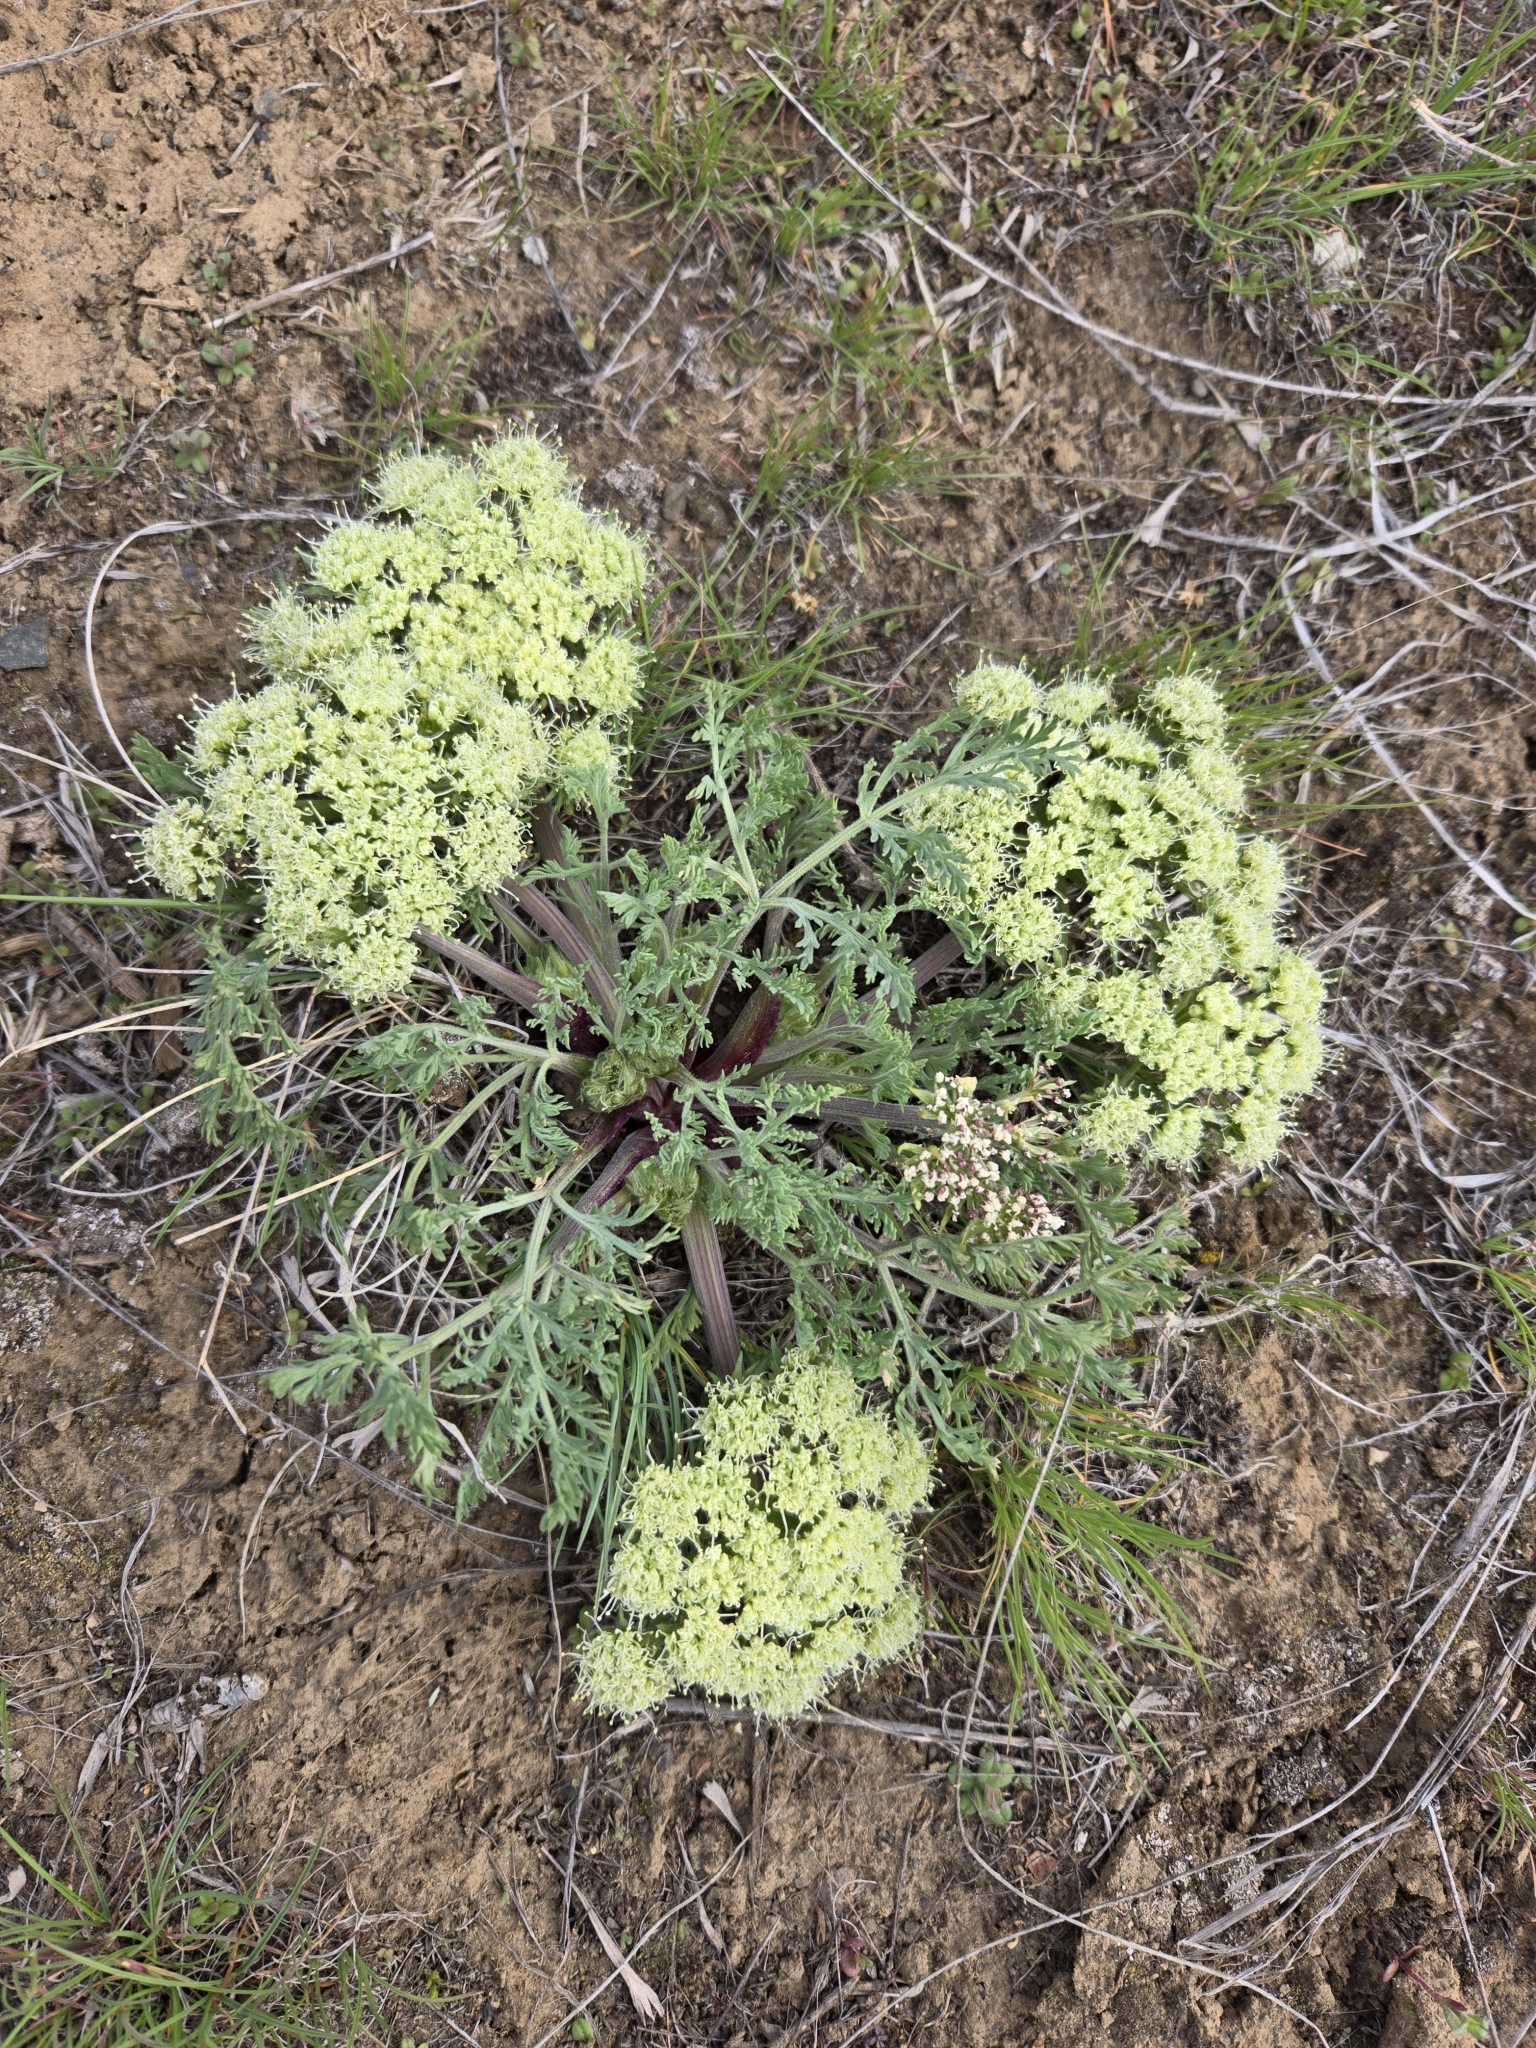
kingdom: Plantae
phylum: Tracheophyta
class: Magnoliopsida
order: Apiales
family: Apiaceae
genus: Lomatium
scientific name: Lomatium macrocarpum
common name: Big-seed biscuitroot
